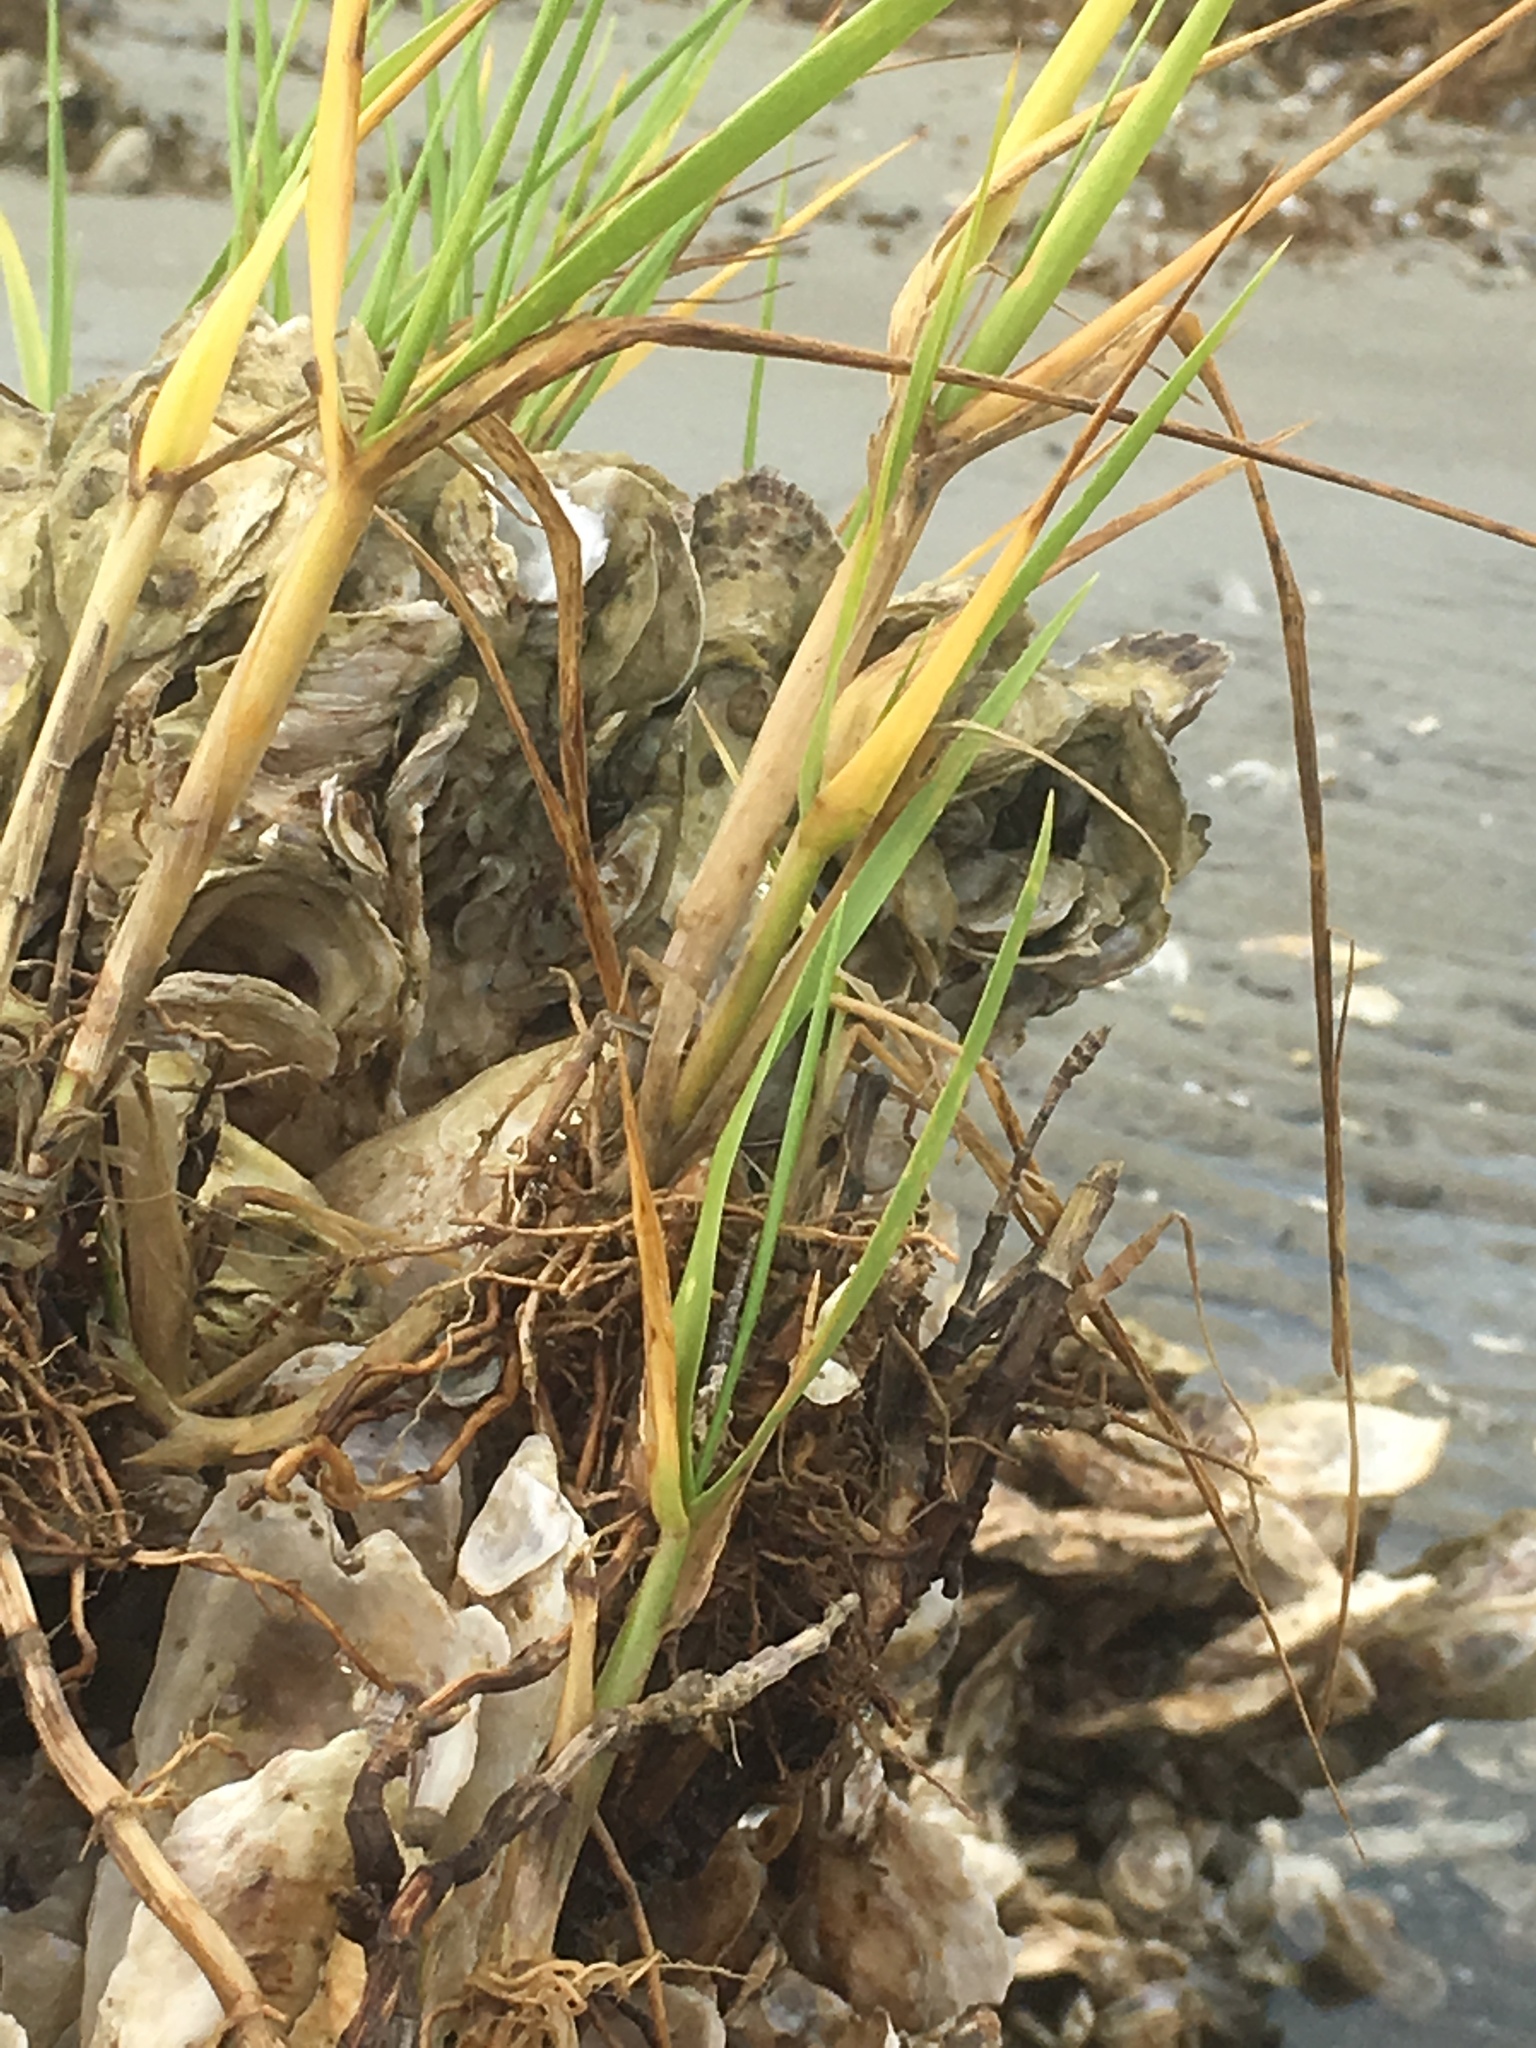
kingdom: Plantae
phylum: Tracheophyta
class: Liliopsida
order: Poales
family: Poaceae
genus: Sporobolus
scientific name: Sporobolus alterniflorus
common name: Atlantic cordgrass
